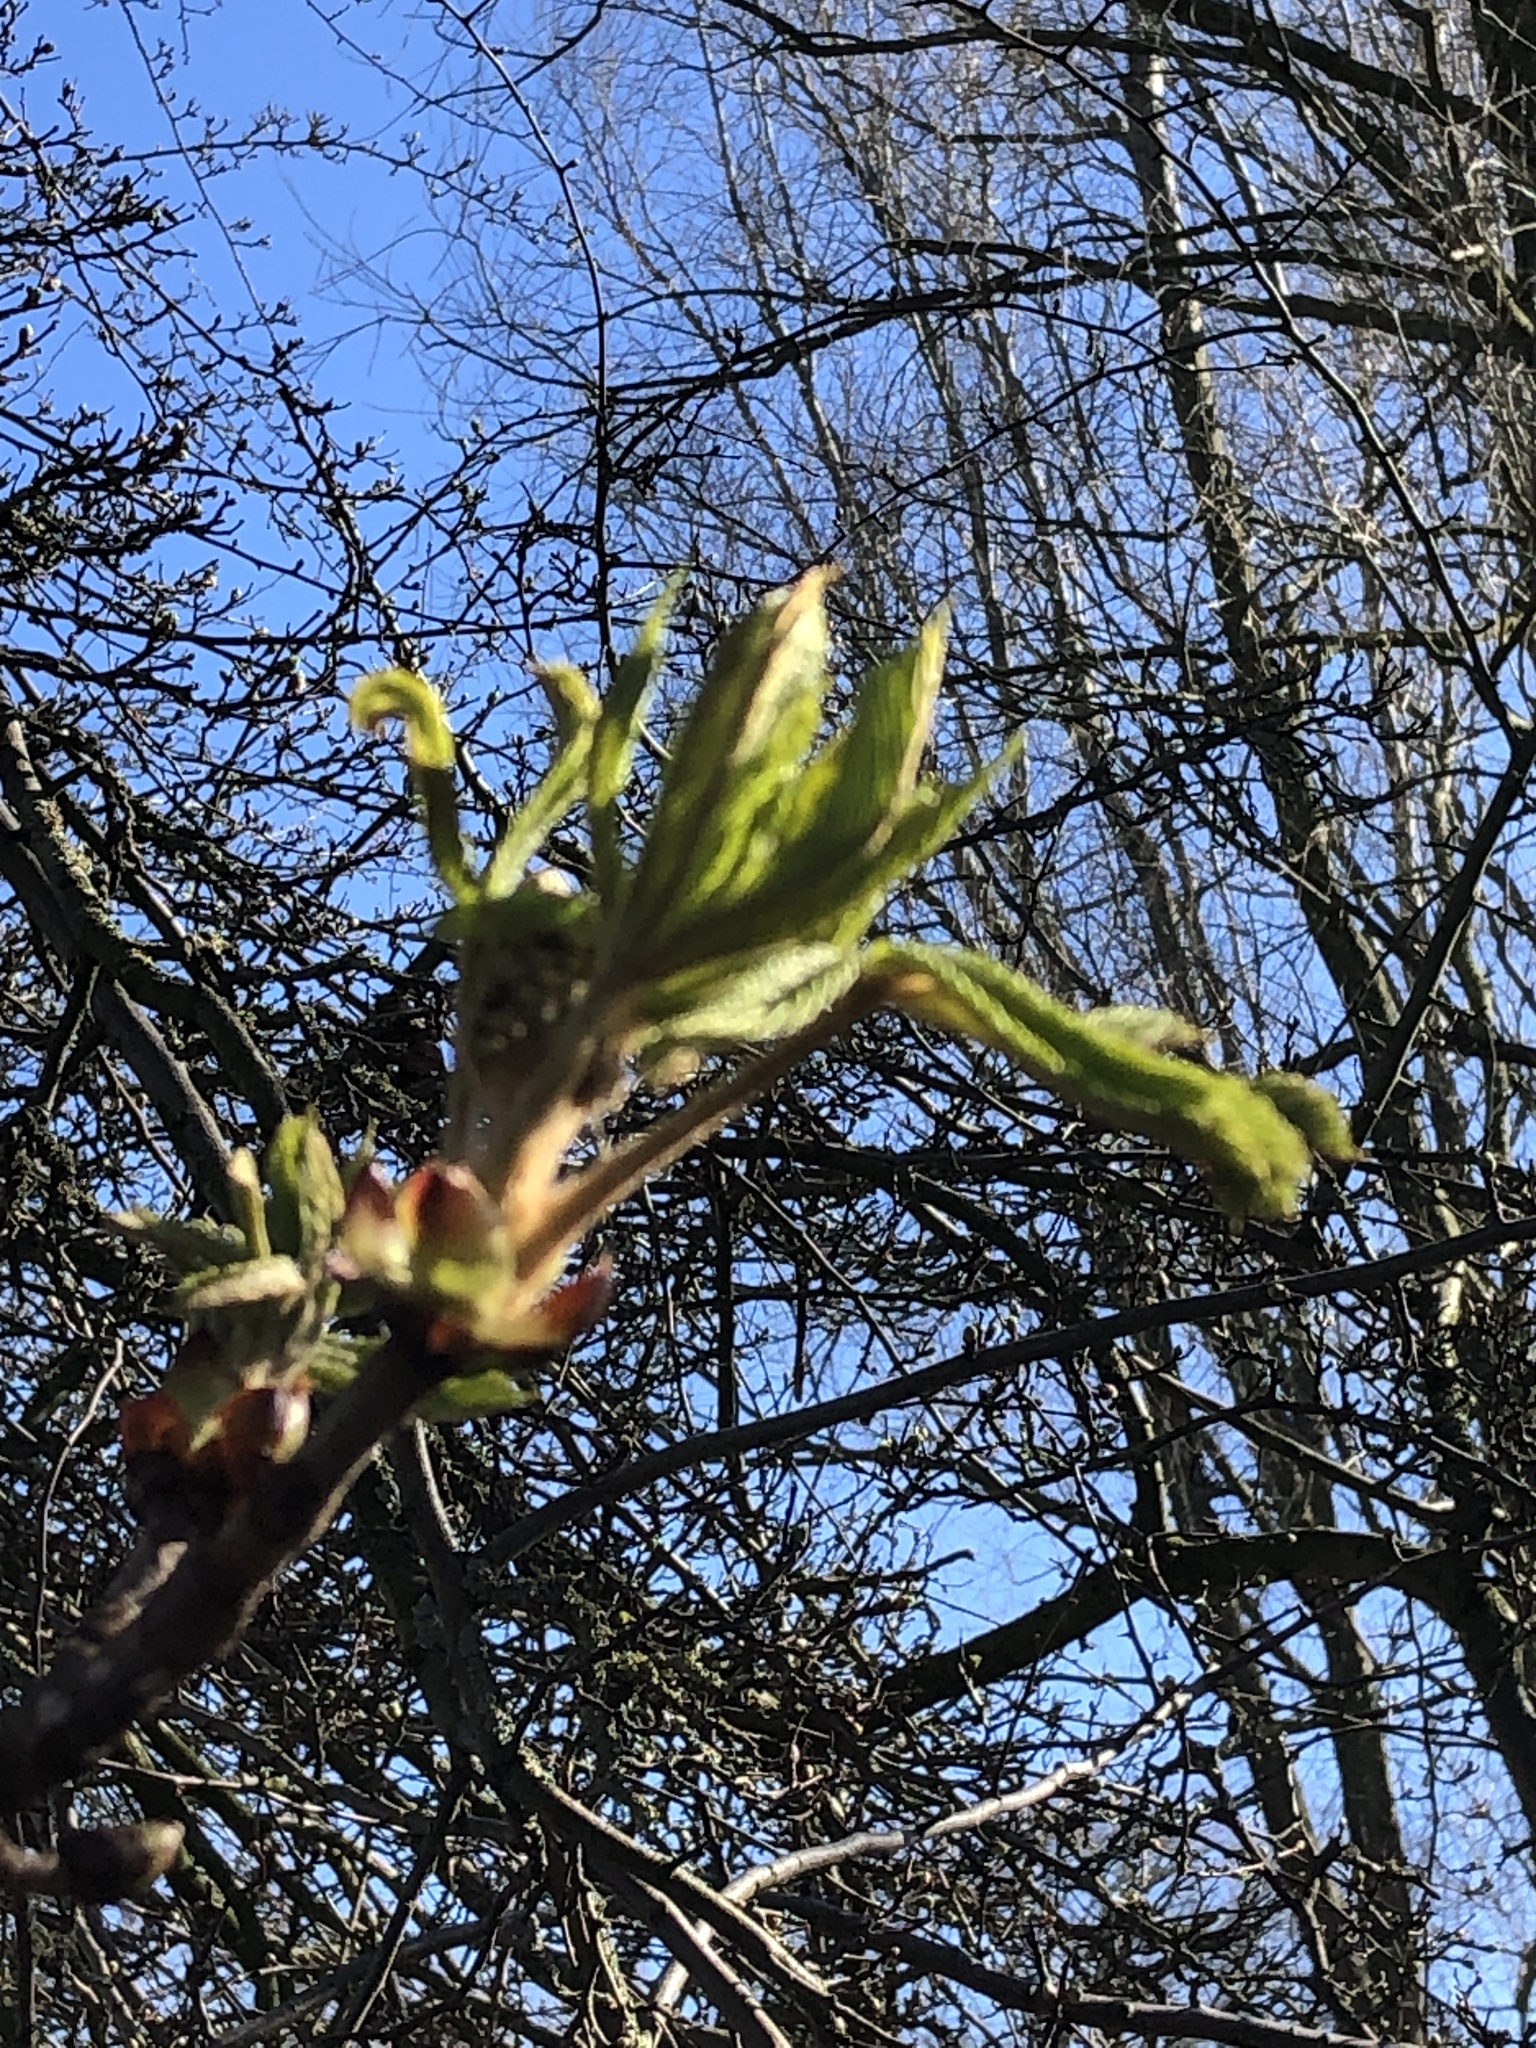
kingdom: Plantae
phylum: Tracheophyta
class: Magnoliopsida
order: Sapindales
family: Sapindaceae
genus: Aesculus
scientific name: Aesculus hippocastanum
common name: Horse-chestnut
